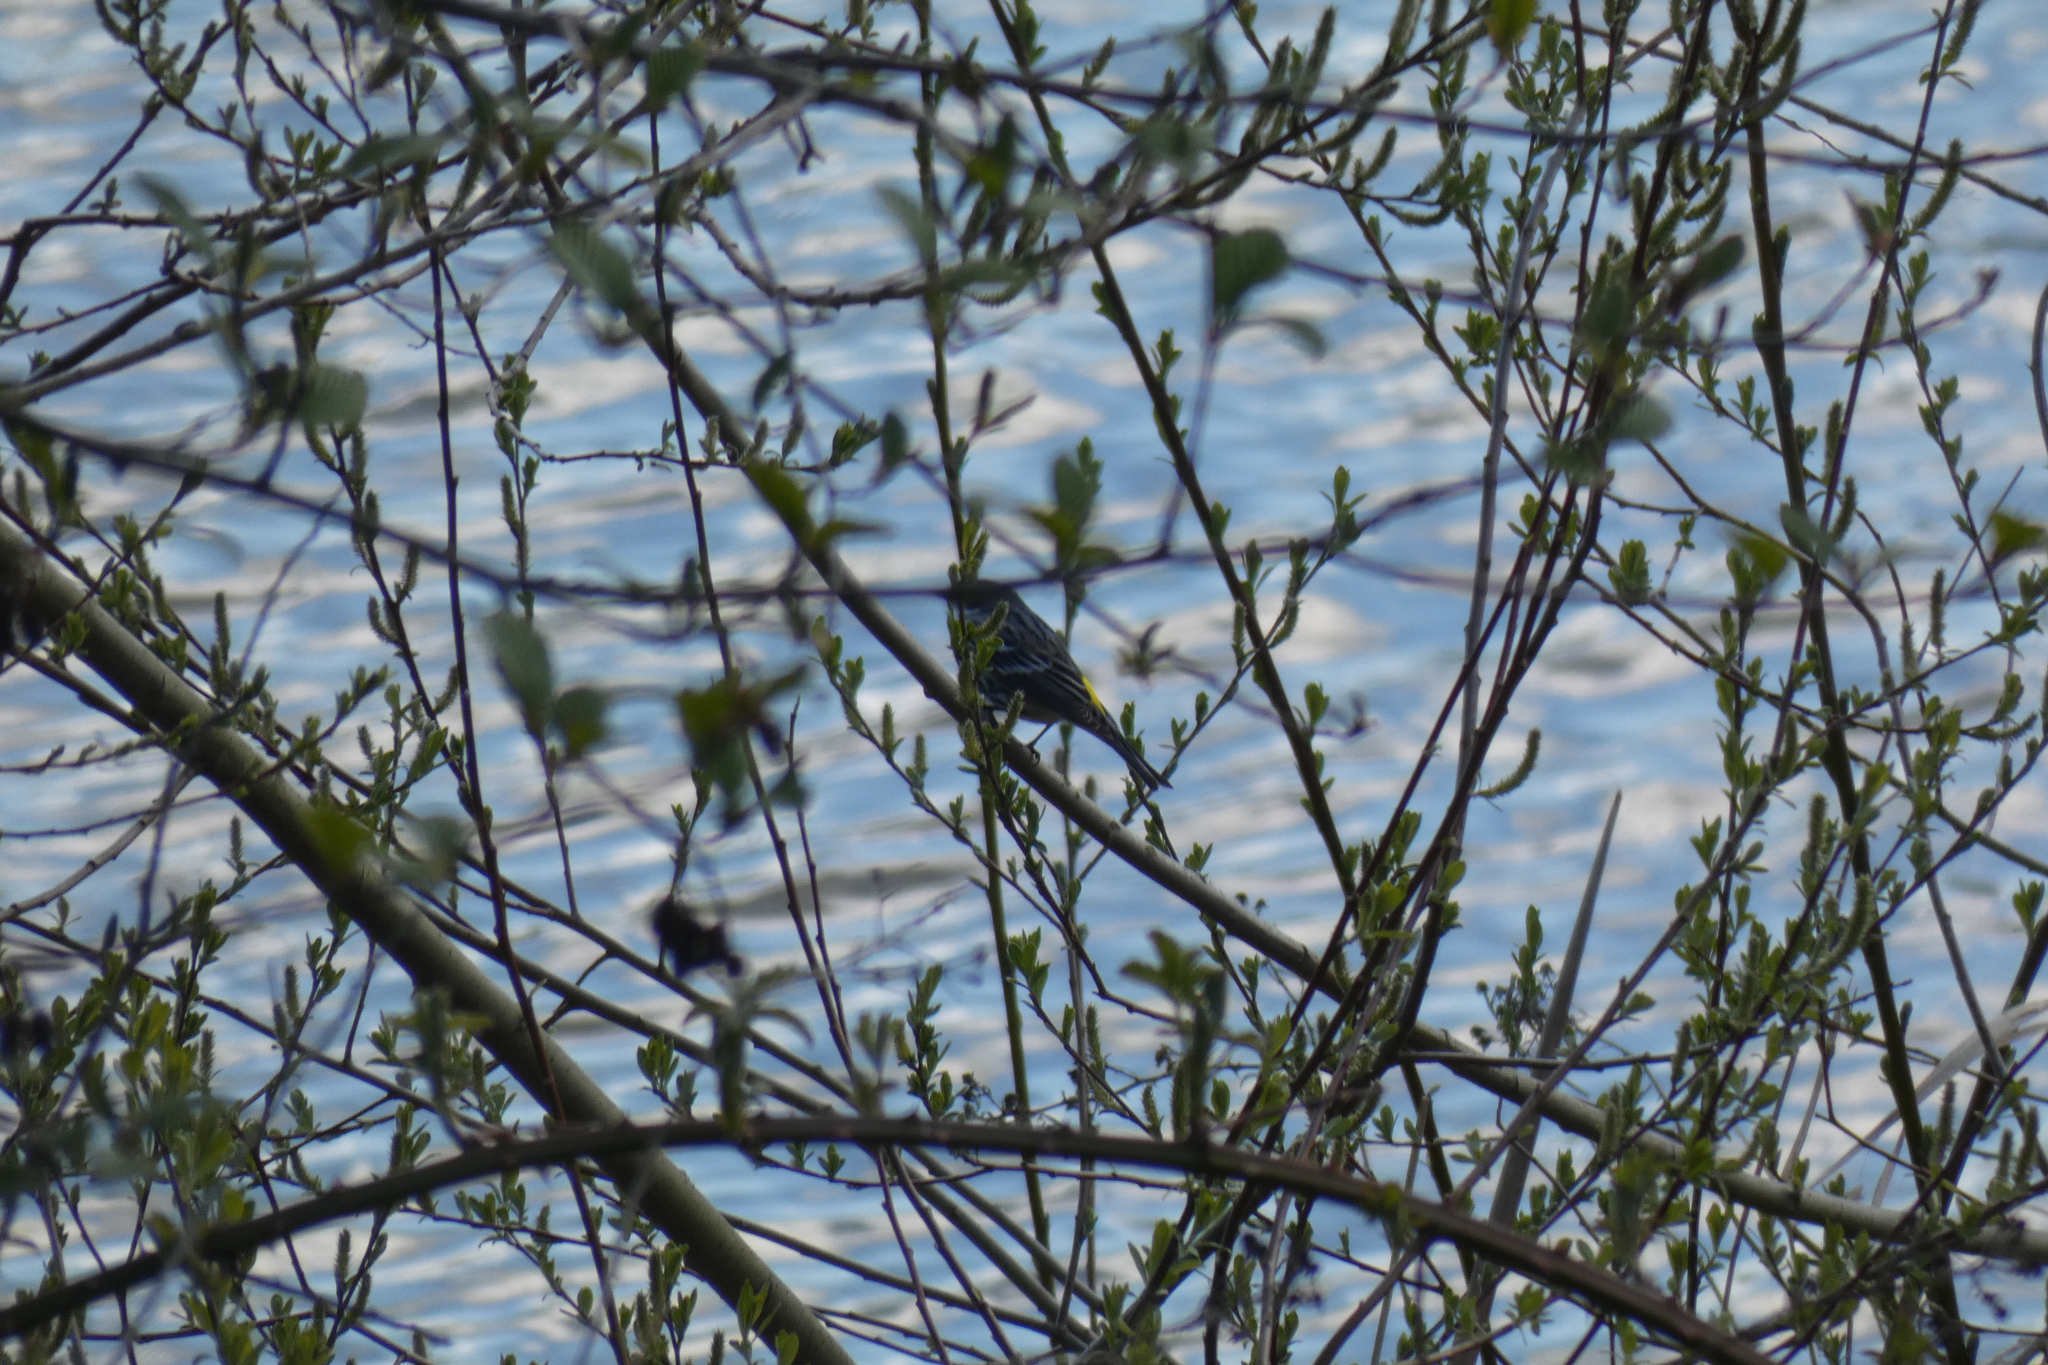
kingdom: Animalia
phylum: Chordata
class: Aves
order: Passeriformes
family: Parulidae
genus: Setophaga
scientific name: Setophaga coronata
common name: Myrtle warbler
